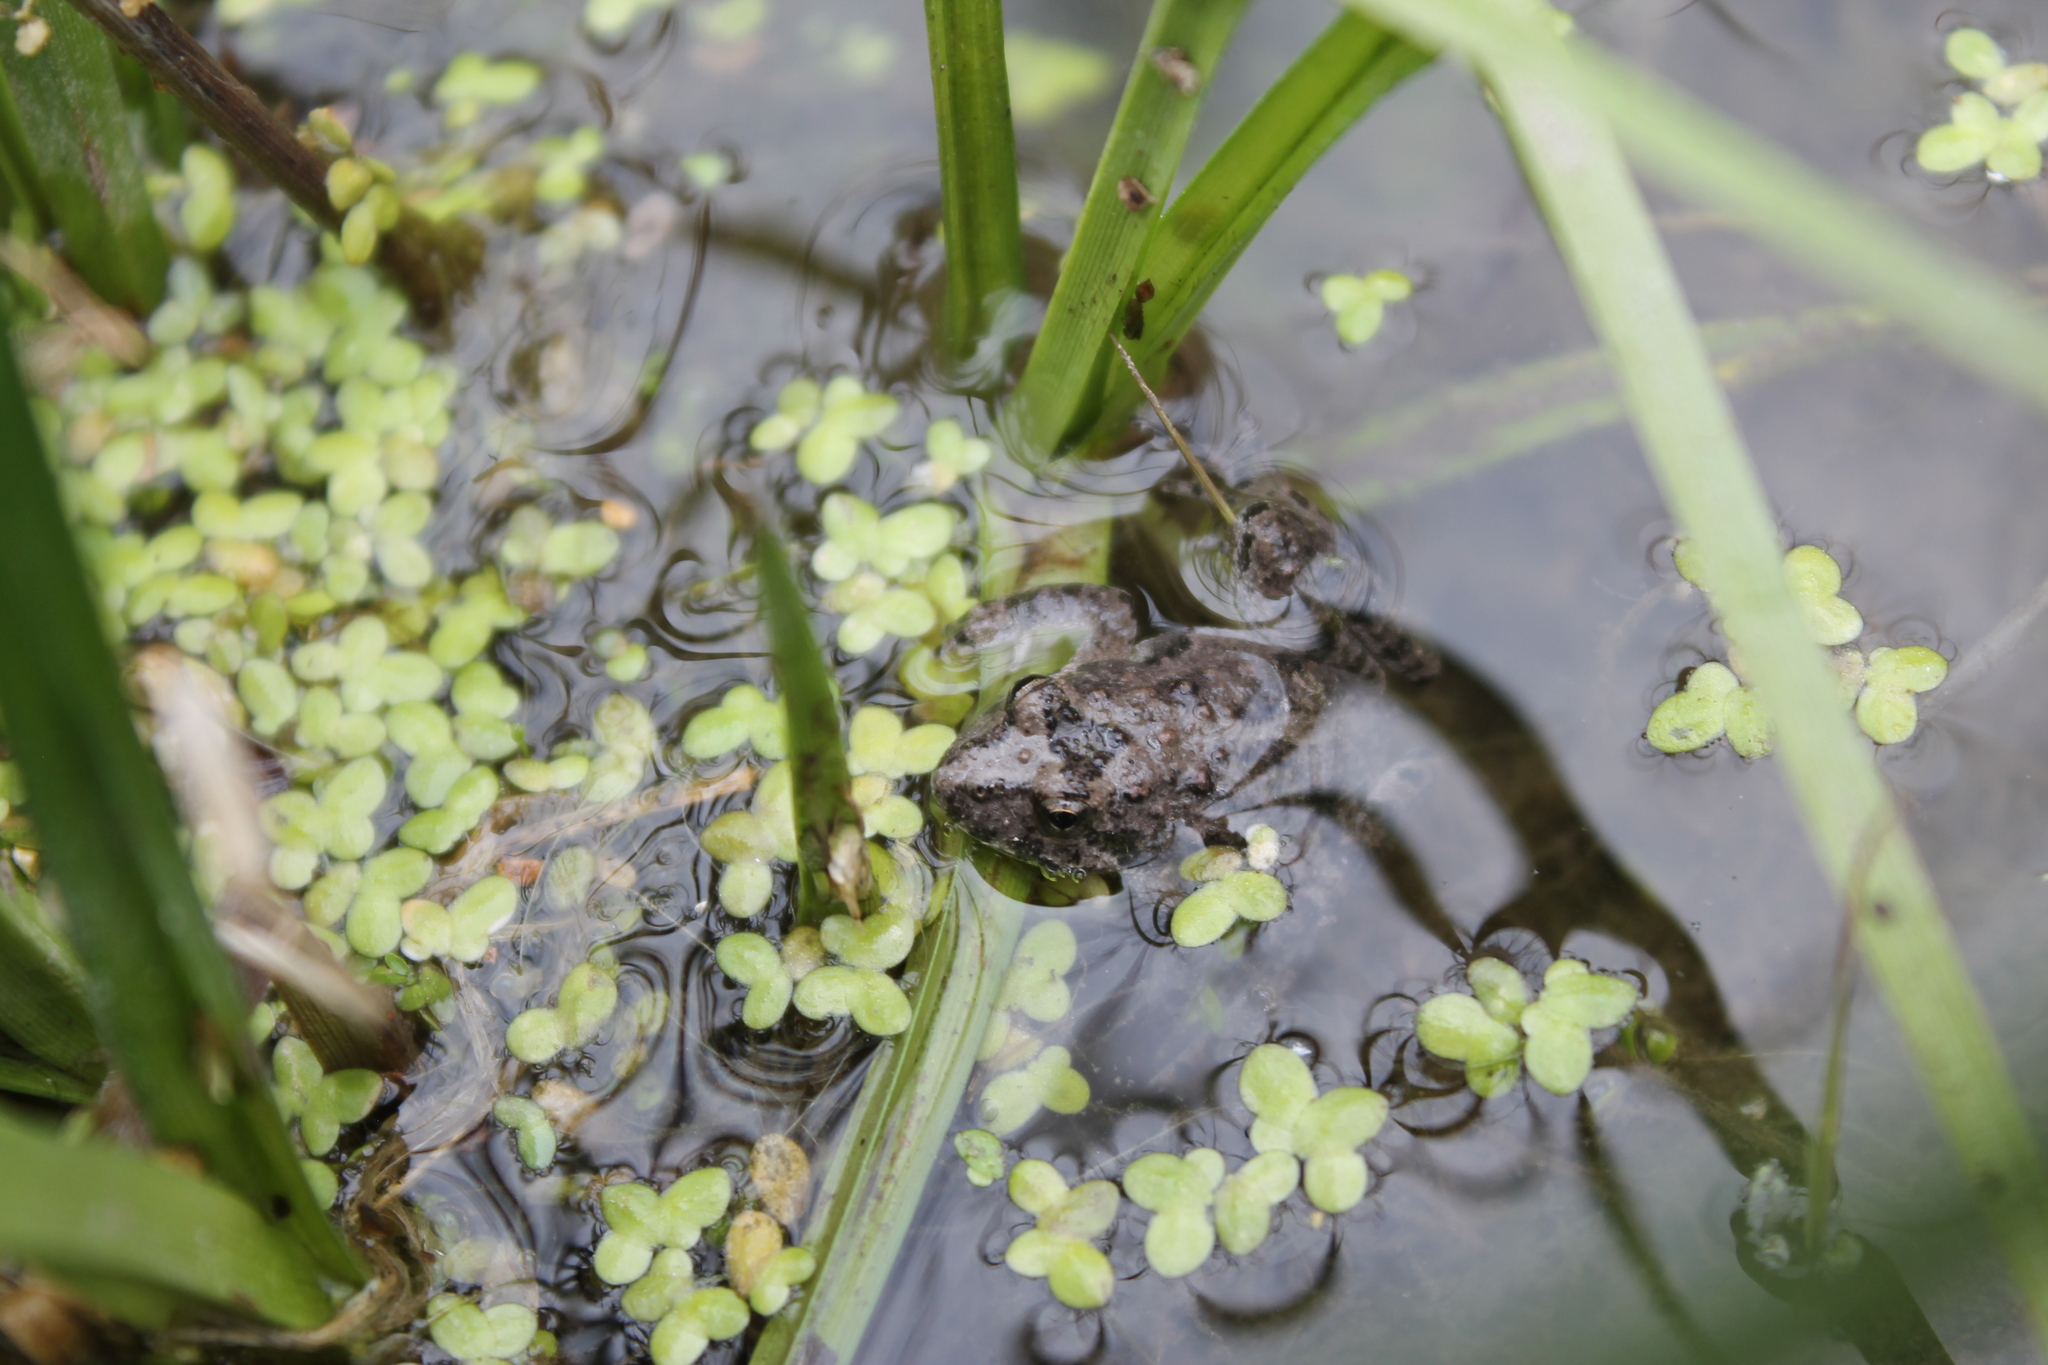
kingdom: Animalia
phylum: Chordata
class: Amphibia
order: Anura
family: Hylidae
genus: Acris
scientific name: Acris blanchardi
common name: Blanchard's cricket frog
